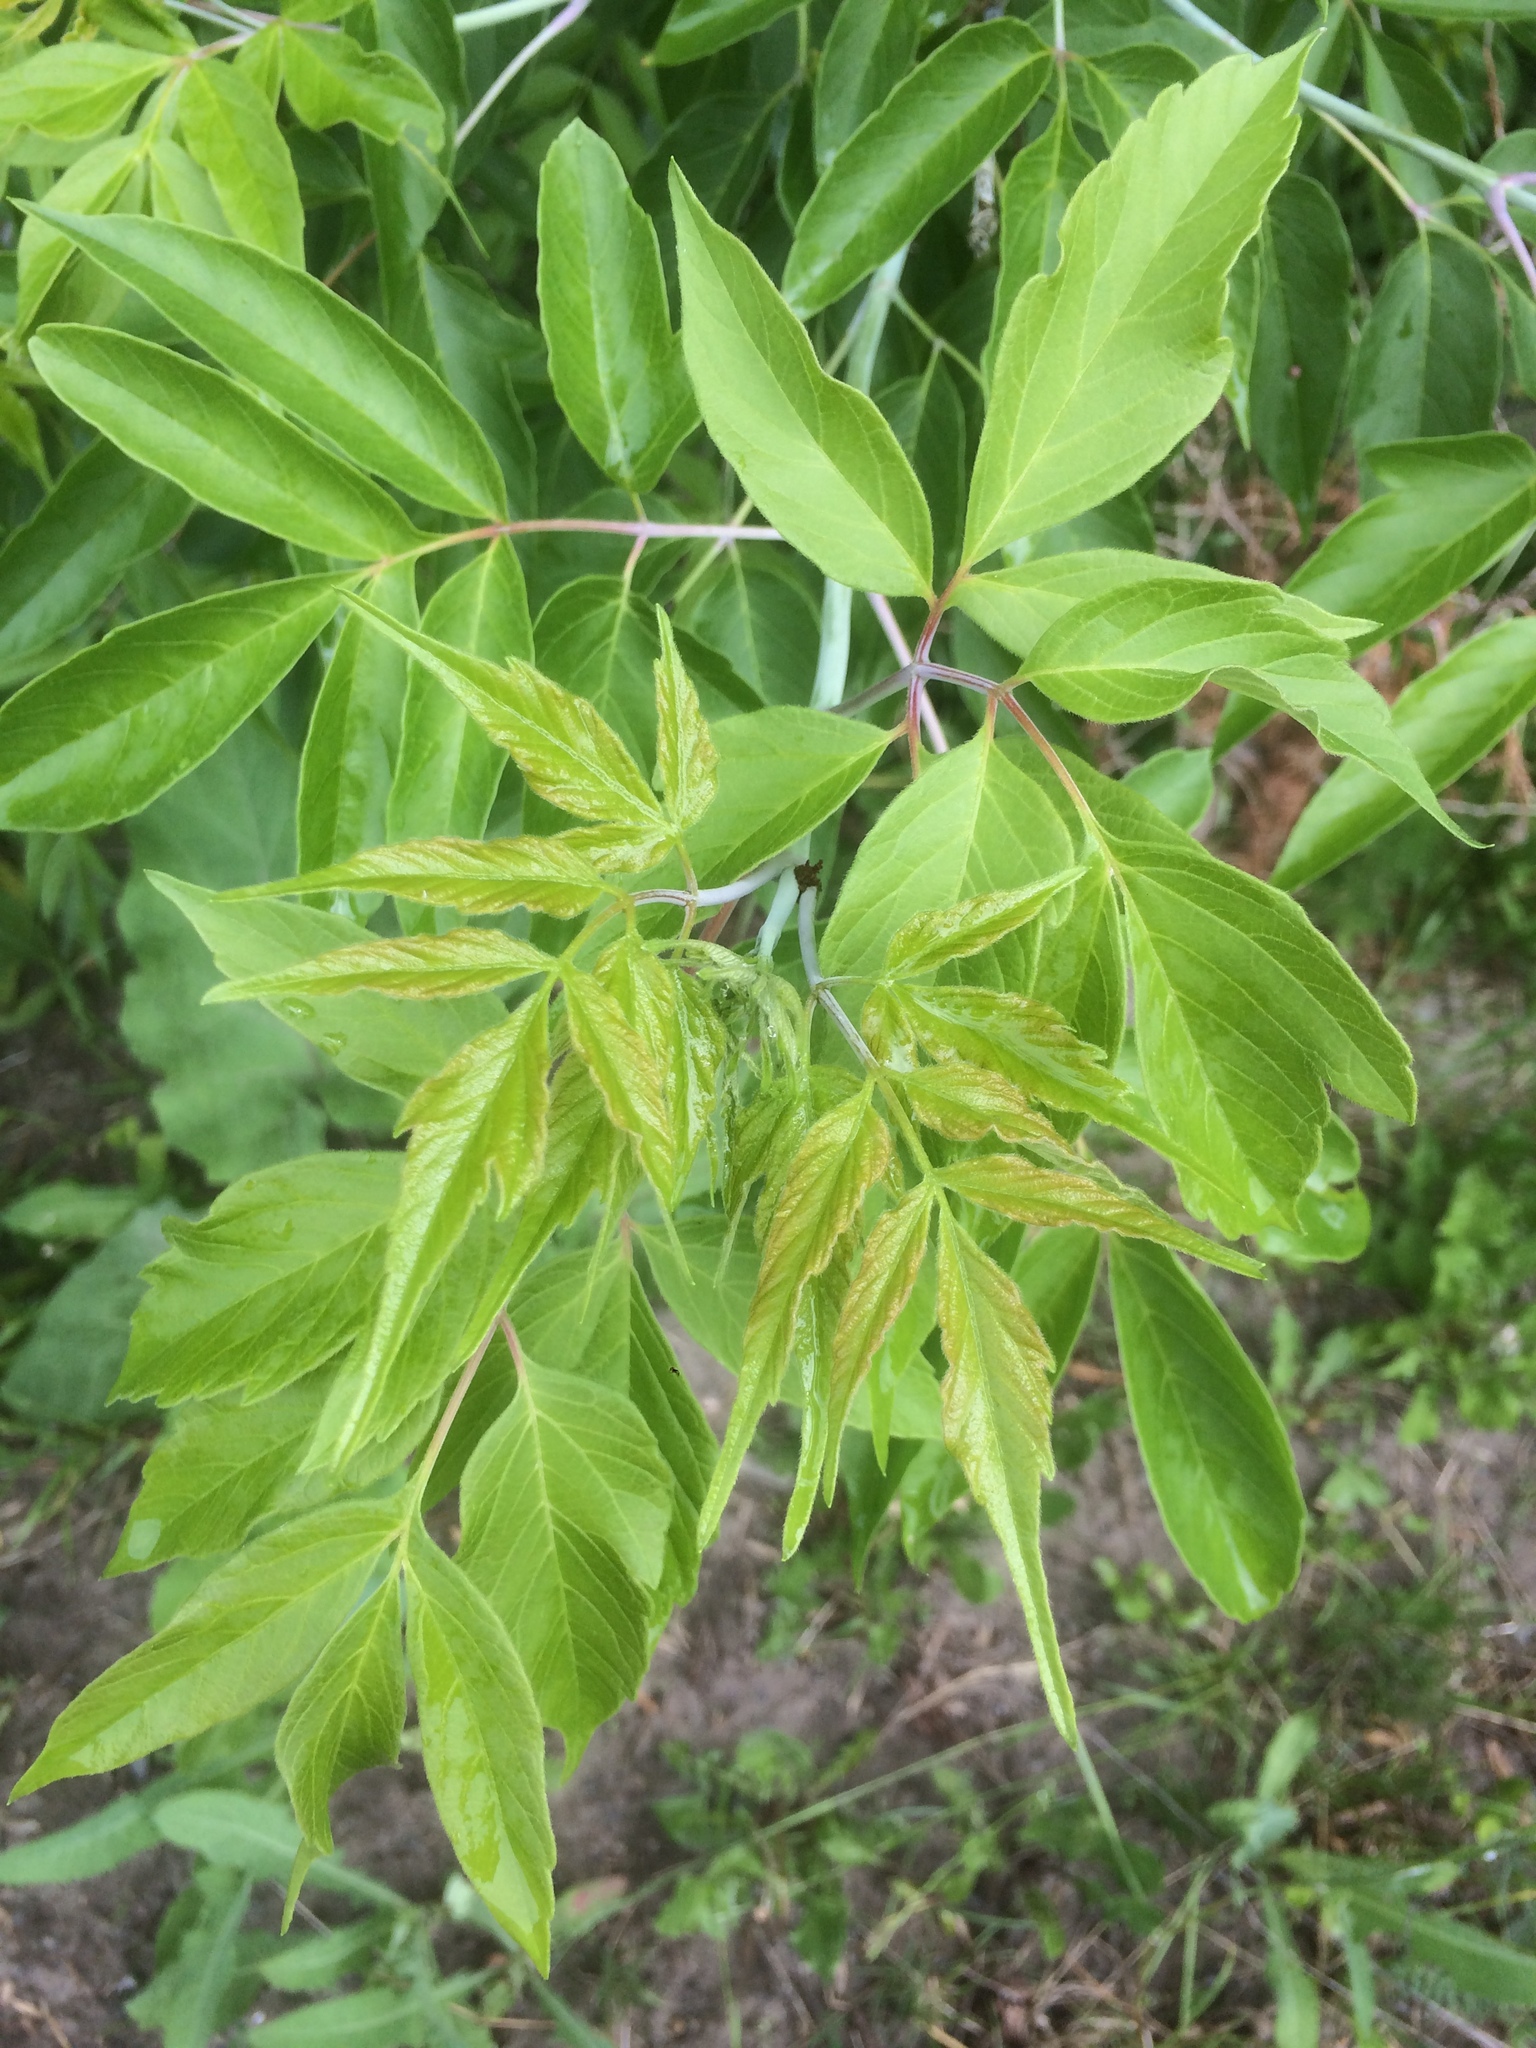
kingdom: Plantae
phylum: Tracheophyta
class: Magnoliopsida
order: Sapindales
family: Sapindaceae
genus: Acer
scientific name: Acer negundo
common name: Ashleaf maple
